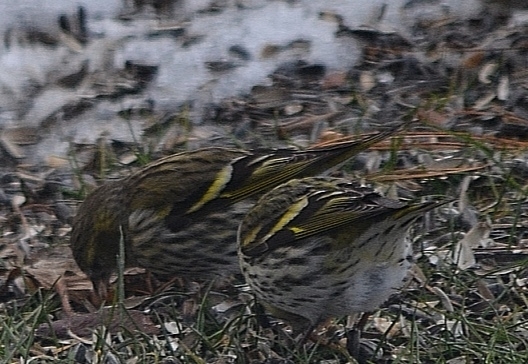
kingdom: Animalia
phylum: Chordata
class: Aves
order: Passeriformes
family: Fringillidae
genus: Spinus
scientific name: Spinus spinus
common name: Eurasian siskin
